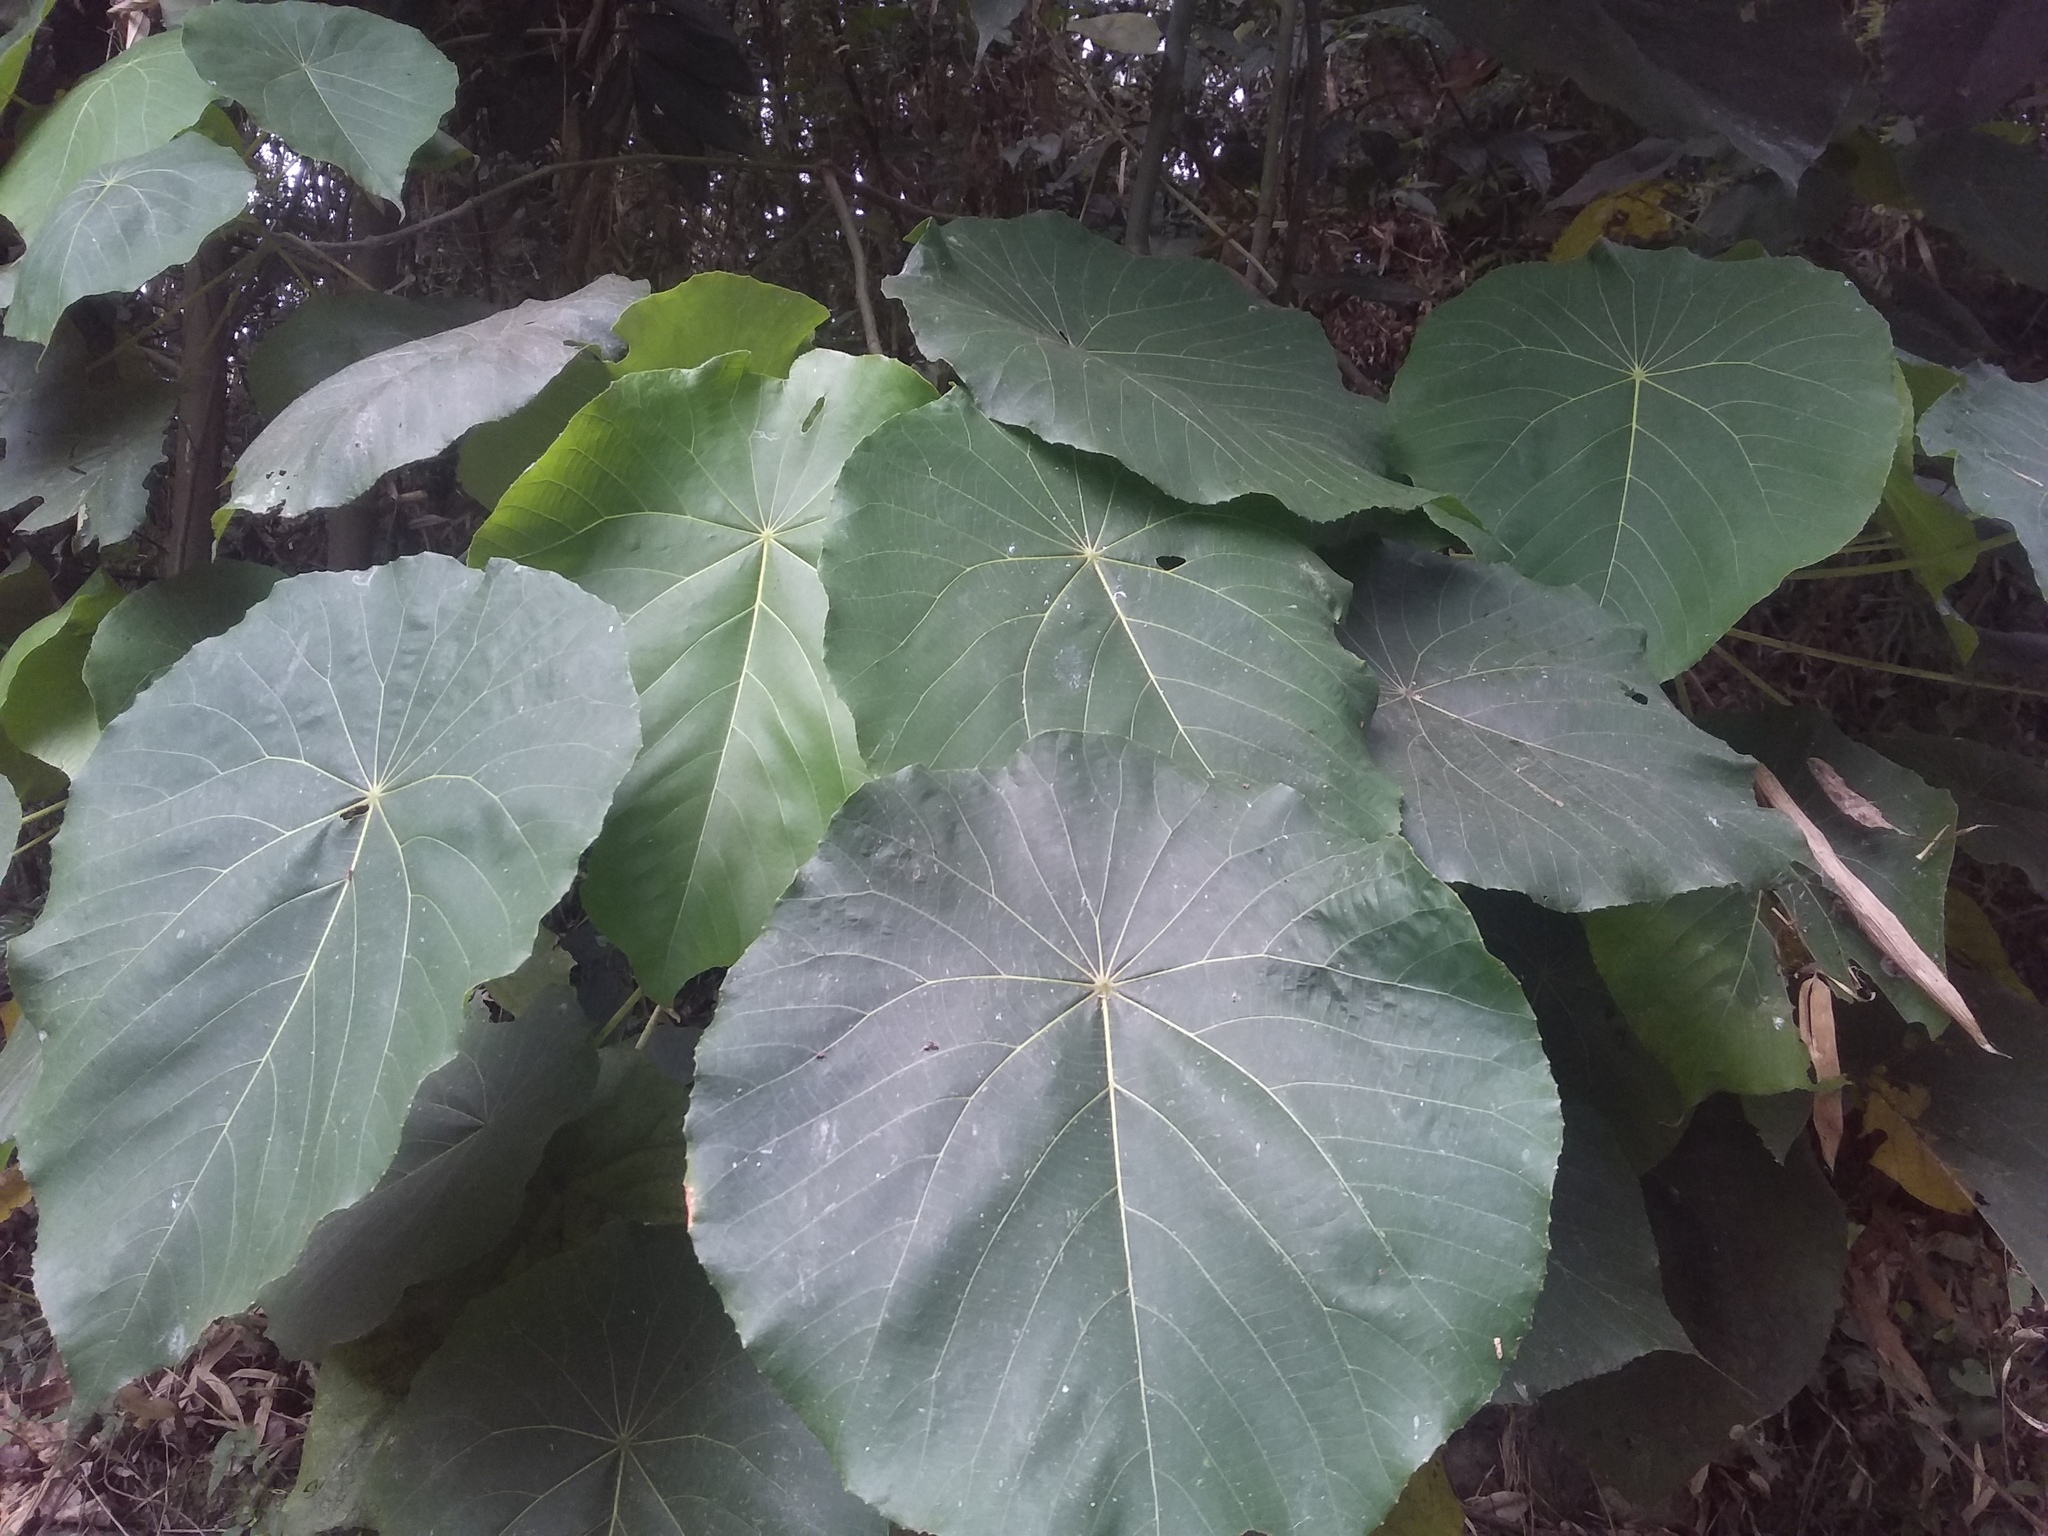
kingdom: Plantae
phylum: Tracheophyta
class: Magnoliopsida
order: Malpighiales
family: Euphorbiaceae
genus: Macaranga
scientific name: Macaranga tanarius
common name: Parasol leaf tree
